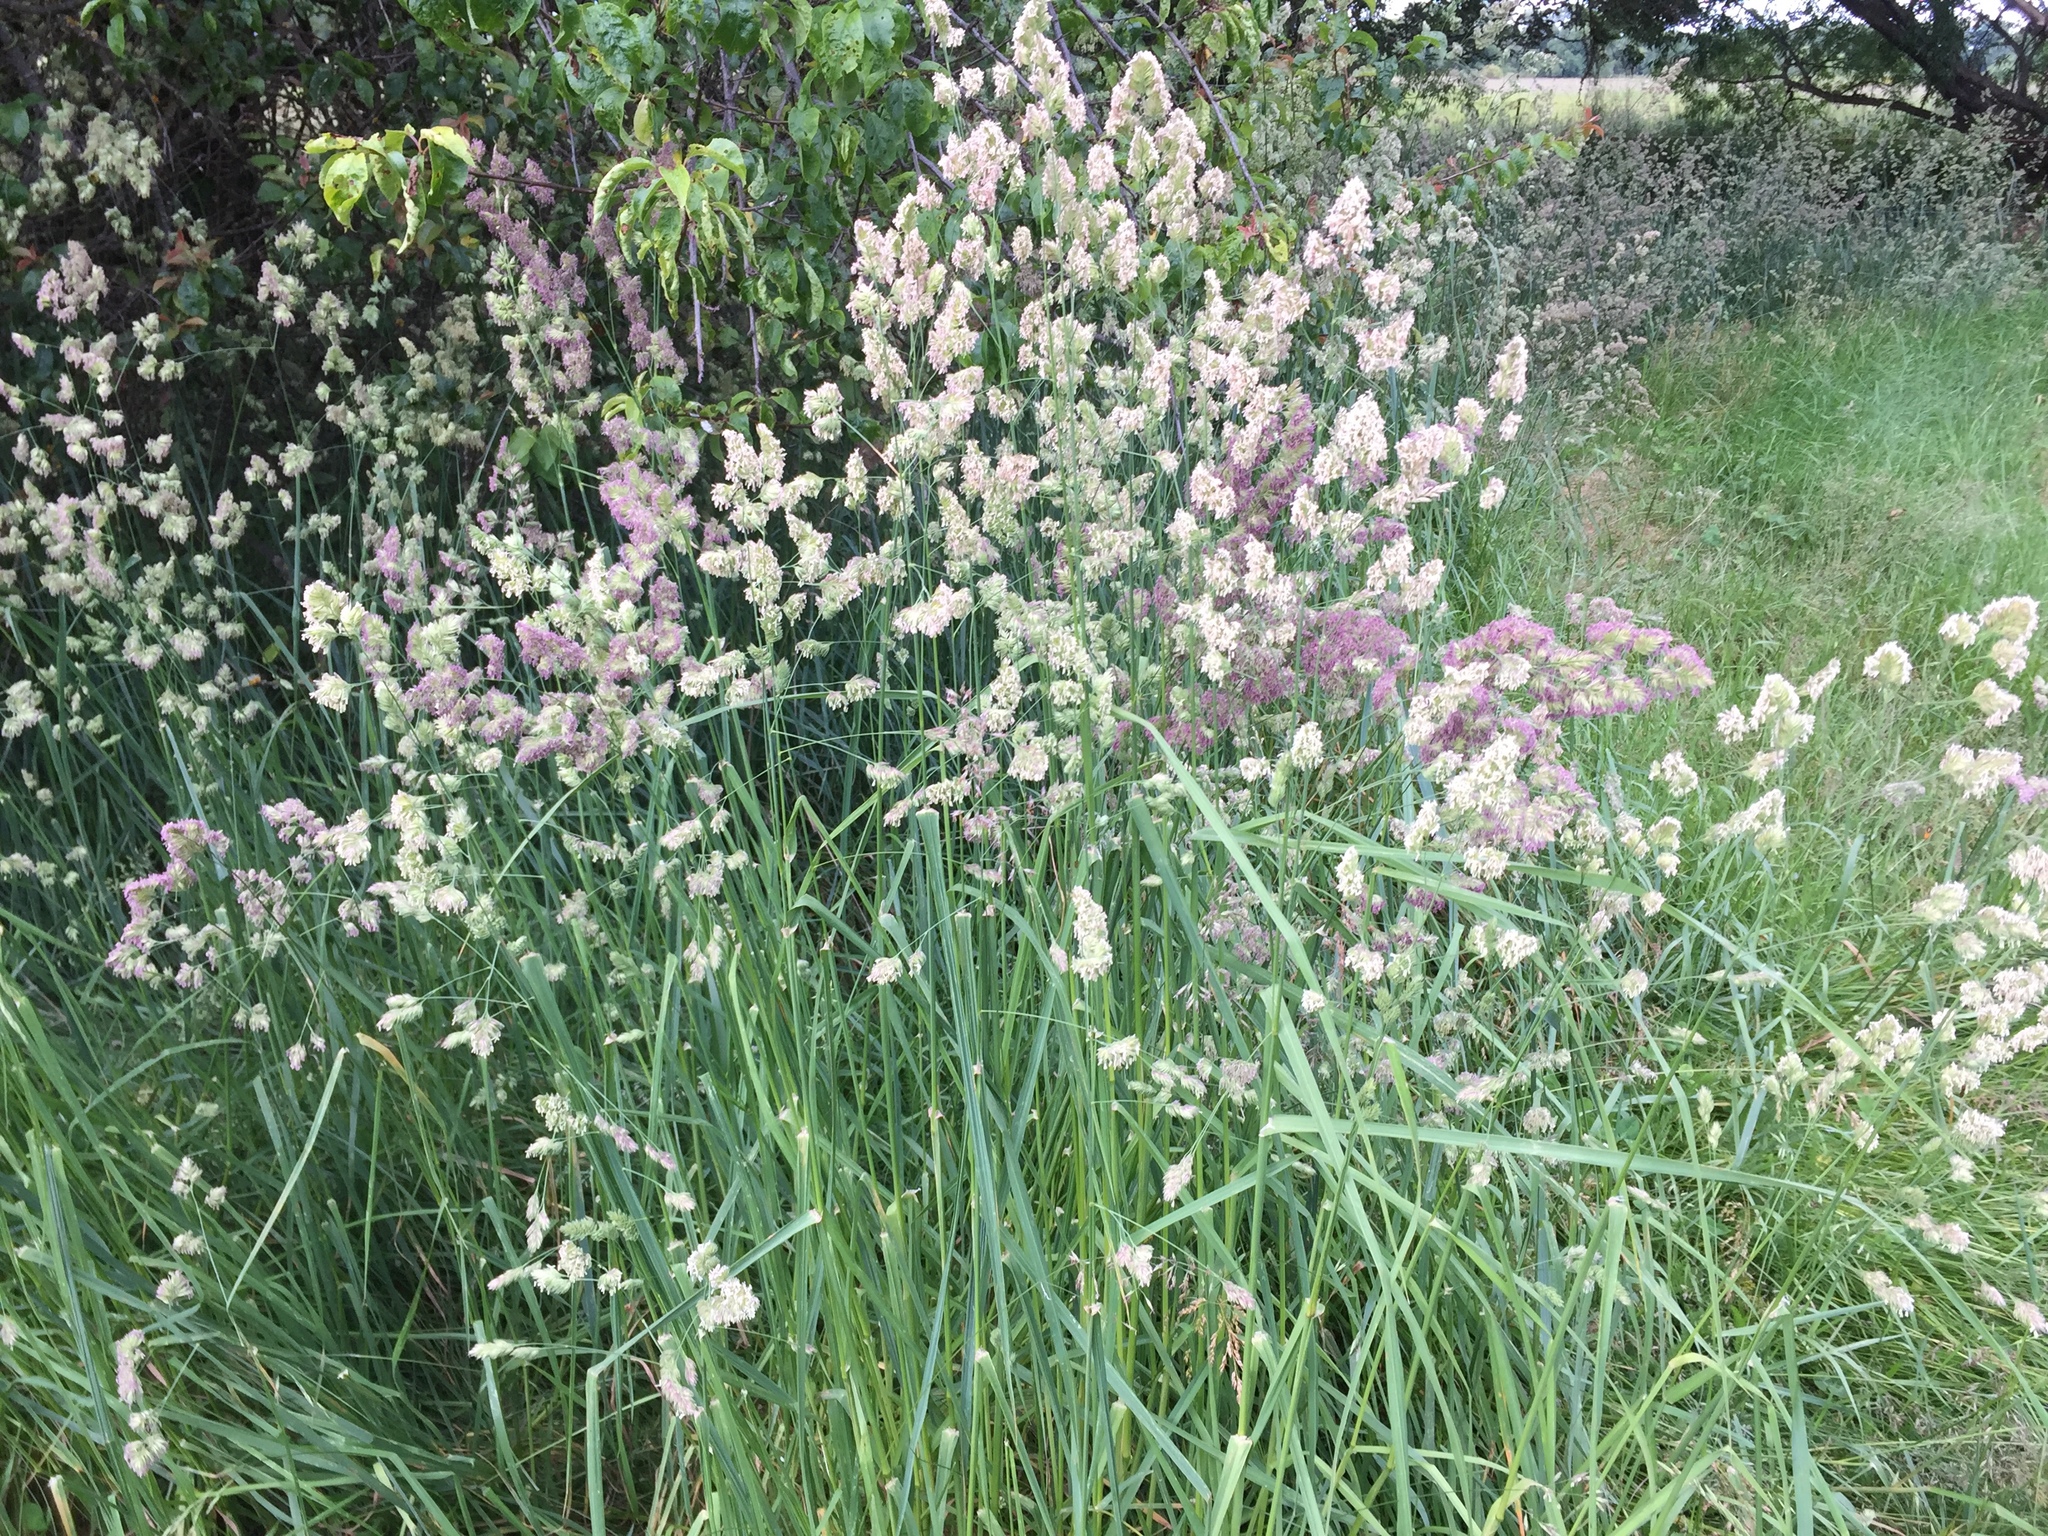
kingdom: Plantae
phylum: Tracheophyta
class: Liliopsida
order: Poales
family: Poaceae
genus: Dactylis
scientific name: Dactylis glomerata
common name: Orchardgrass
